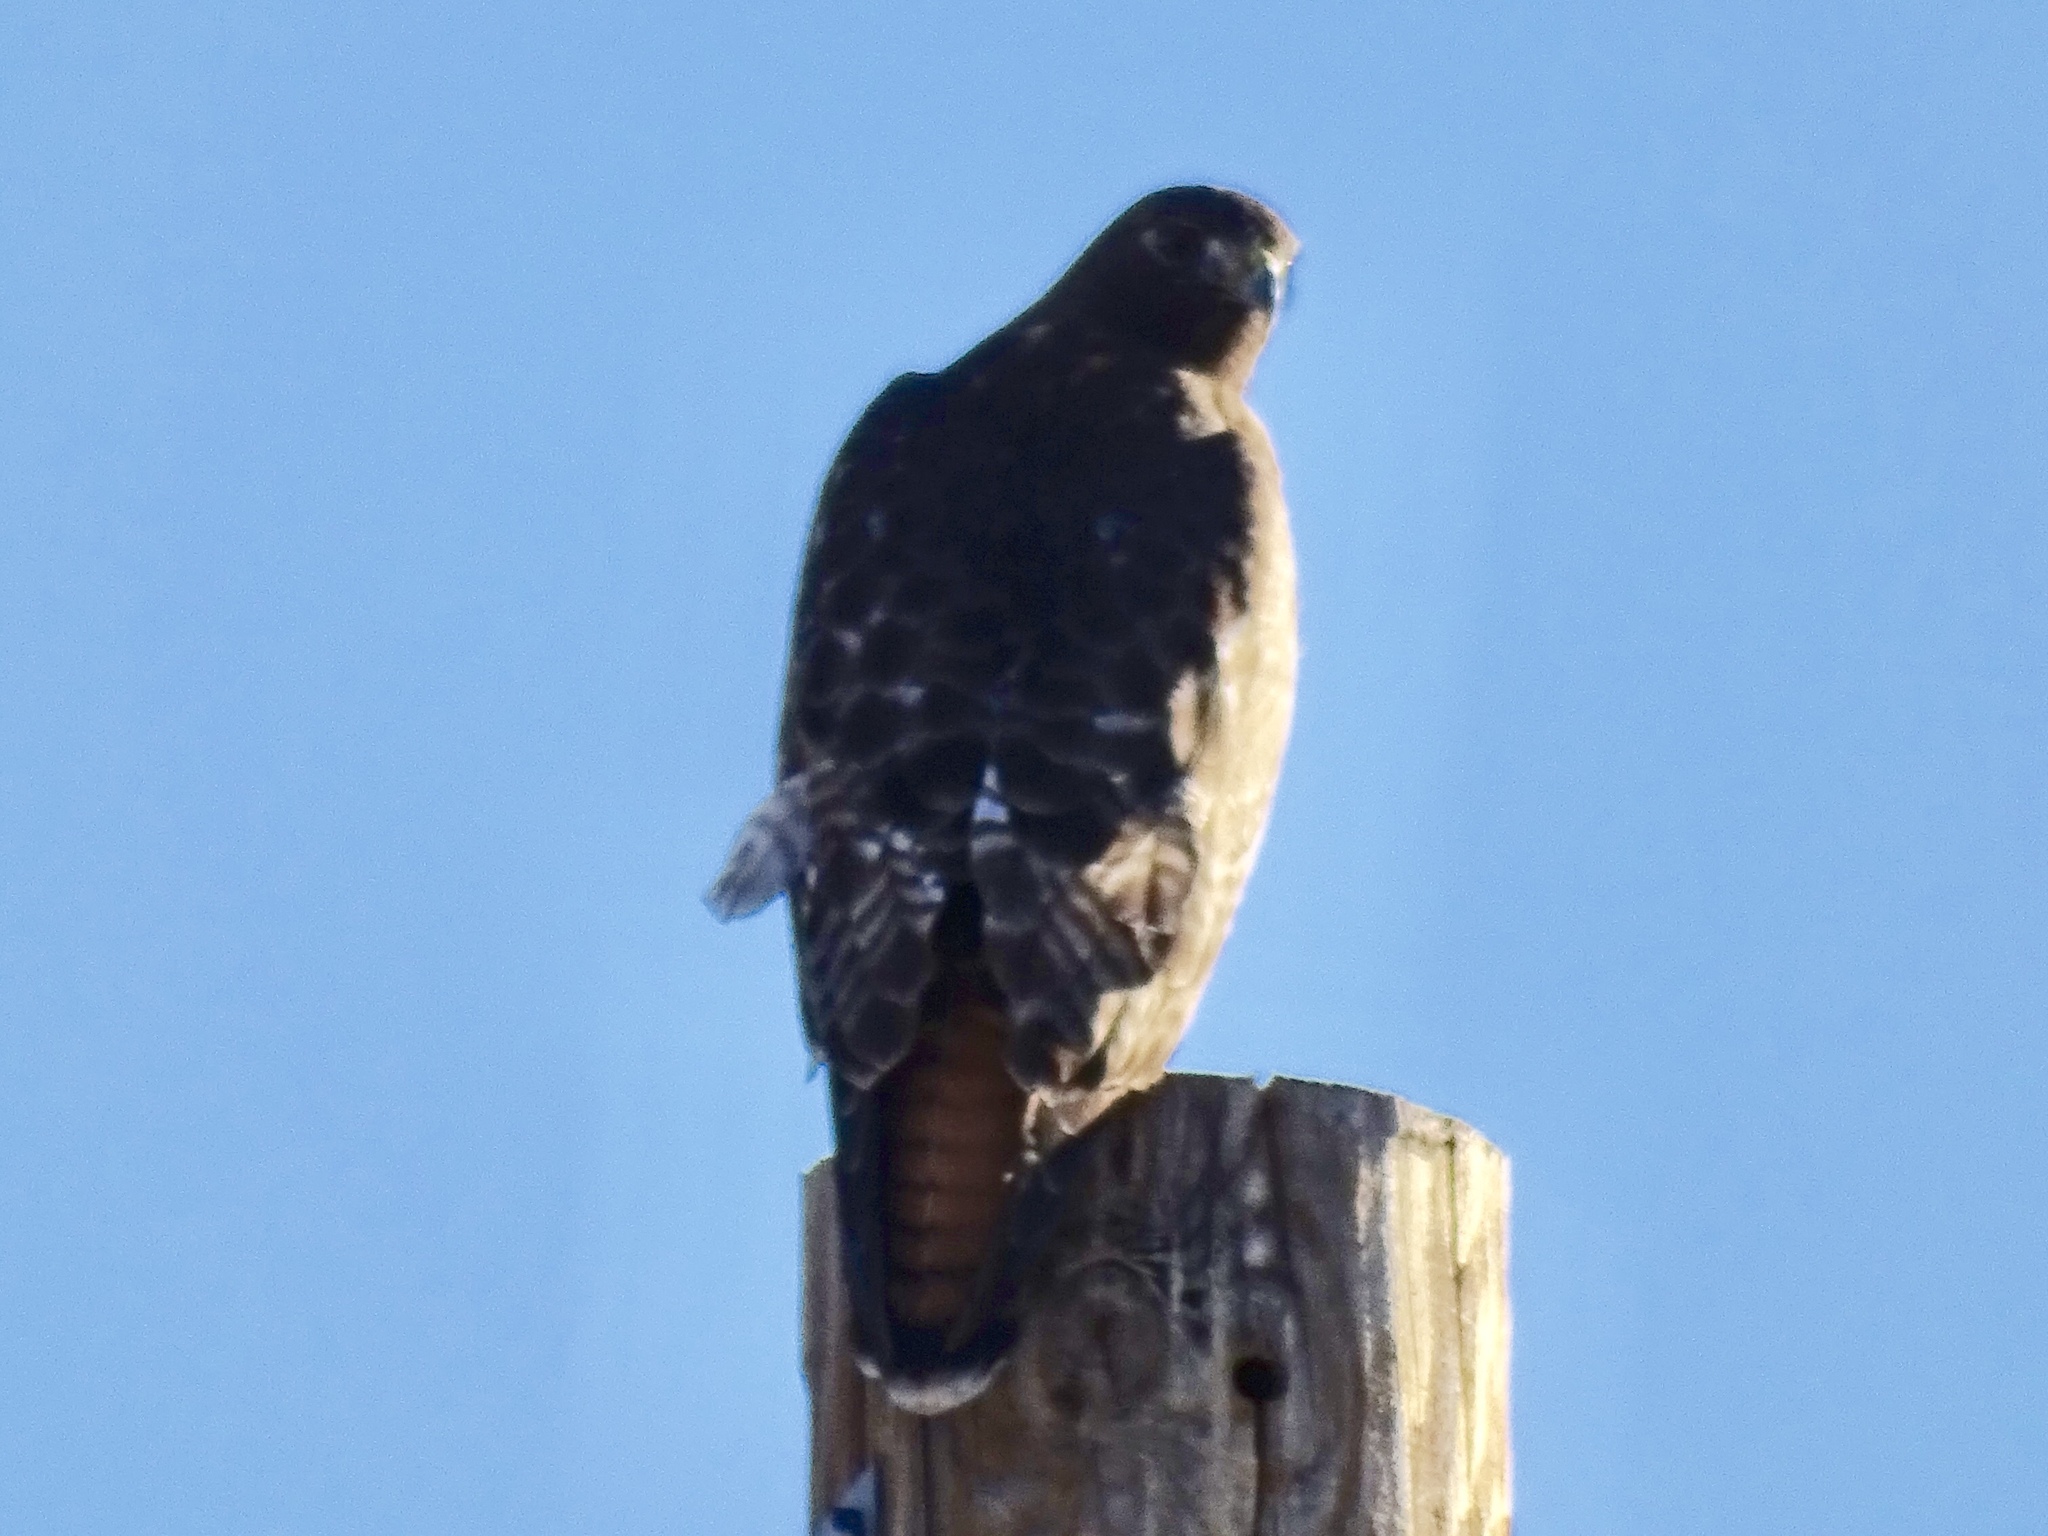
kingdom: Animalia
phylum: Chordata
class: Aves
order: Accipitriformes
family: Accipitridae
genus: Buteo
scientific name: Buteo jamaicensis
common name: Red-tailed hawk
